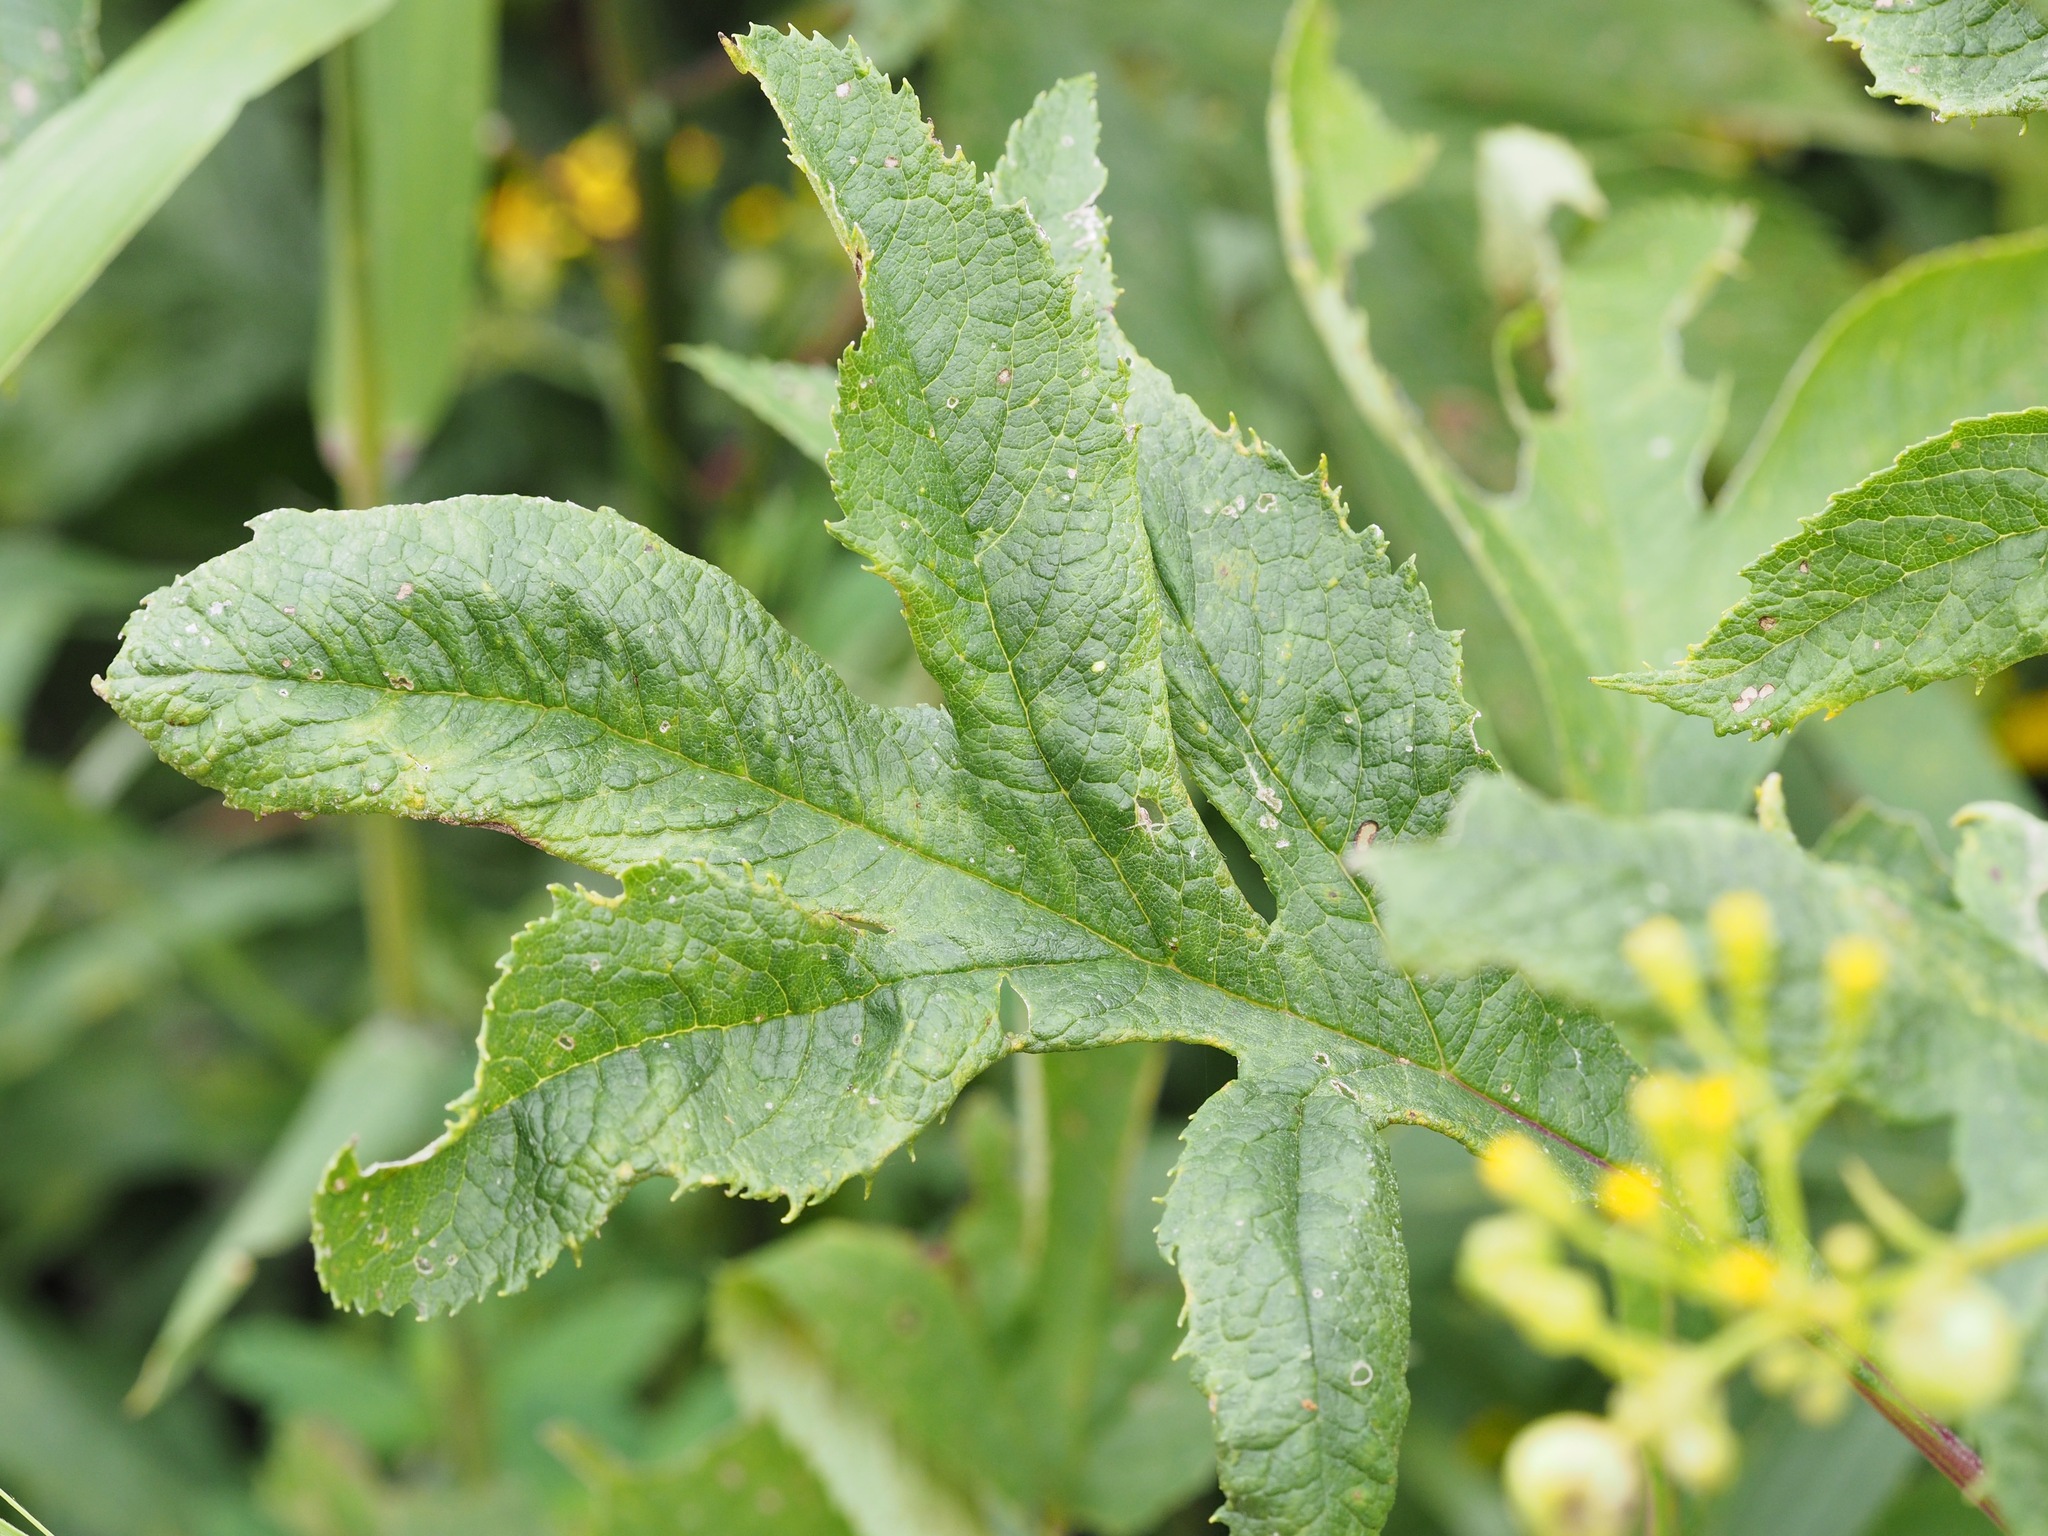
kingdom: Plantae
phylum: Tracheophyta
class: Magnoliopsida
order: Asterales
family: Asteraceae
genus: Jacobaea
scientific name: Jacobaea cannabifolia
